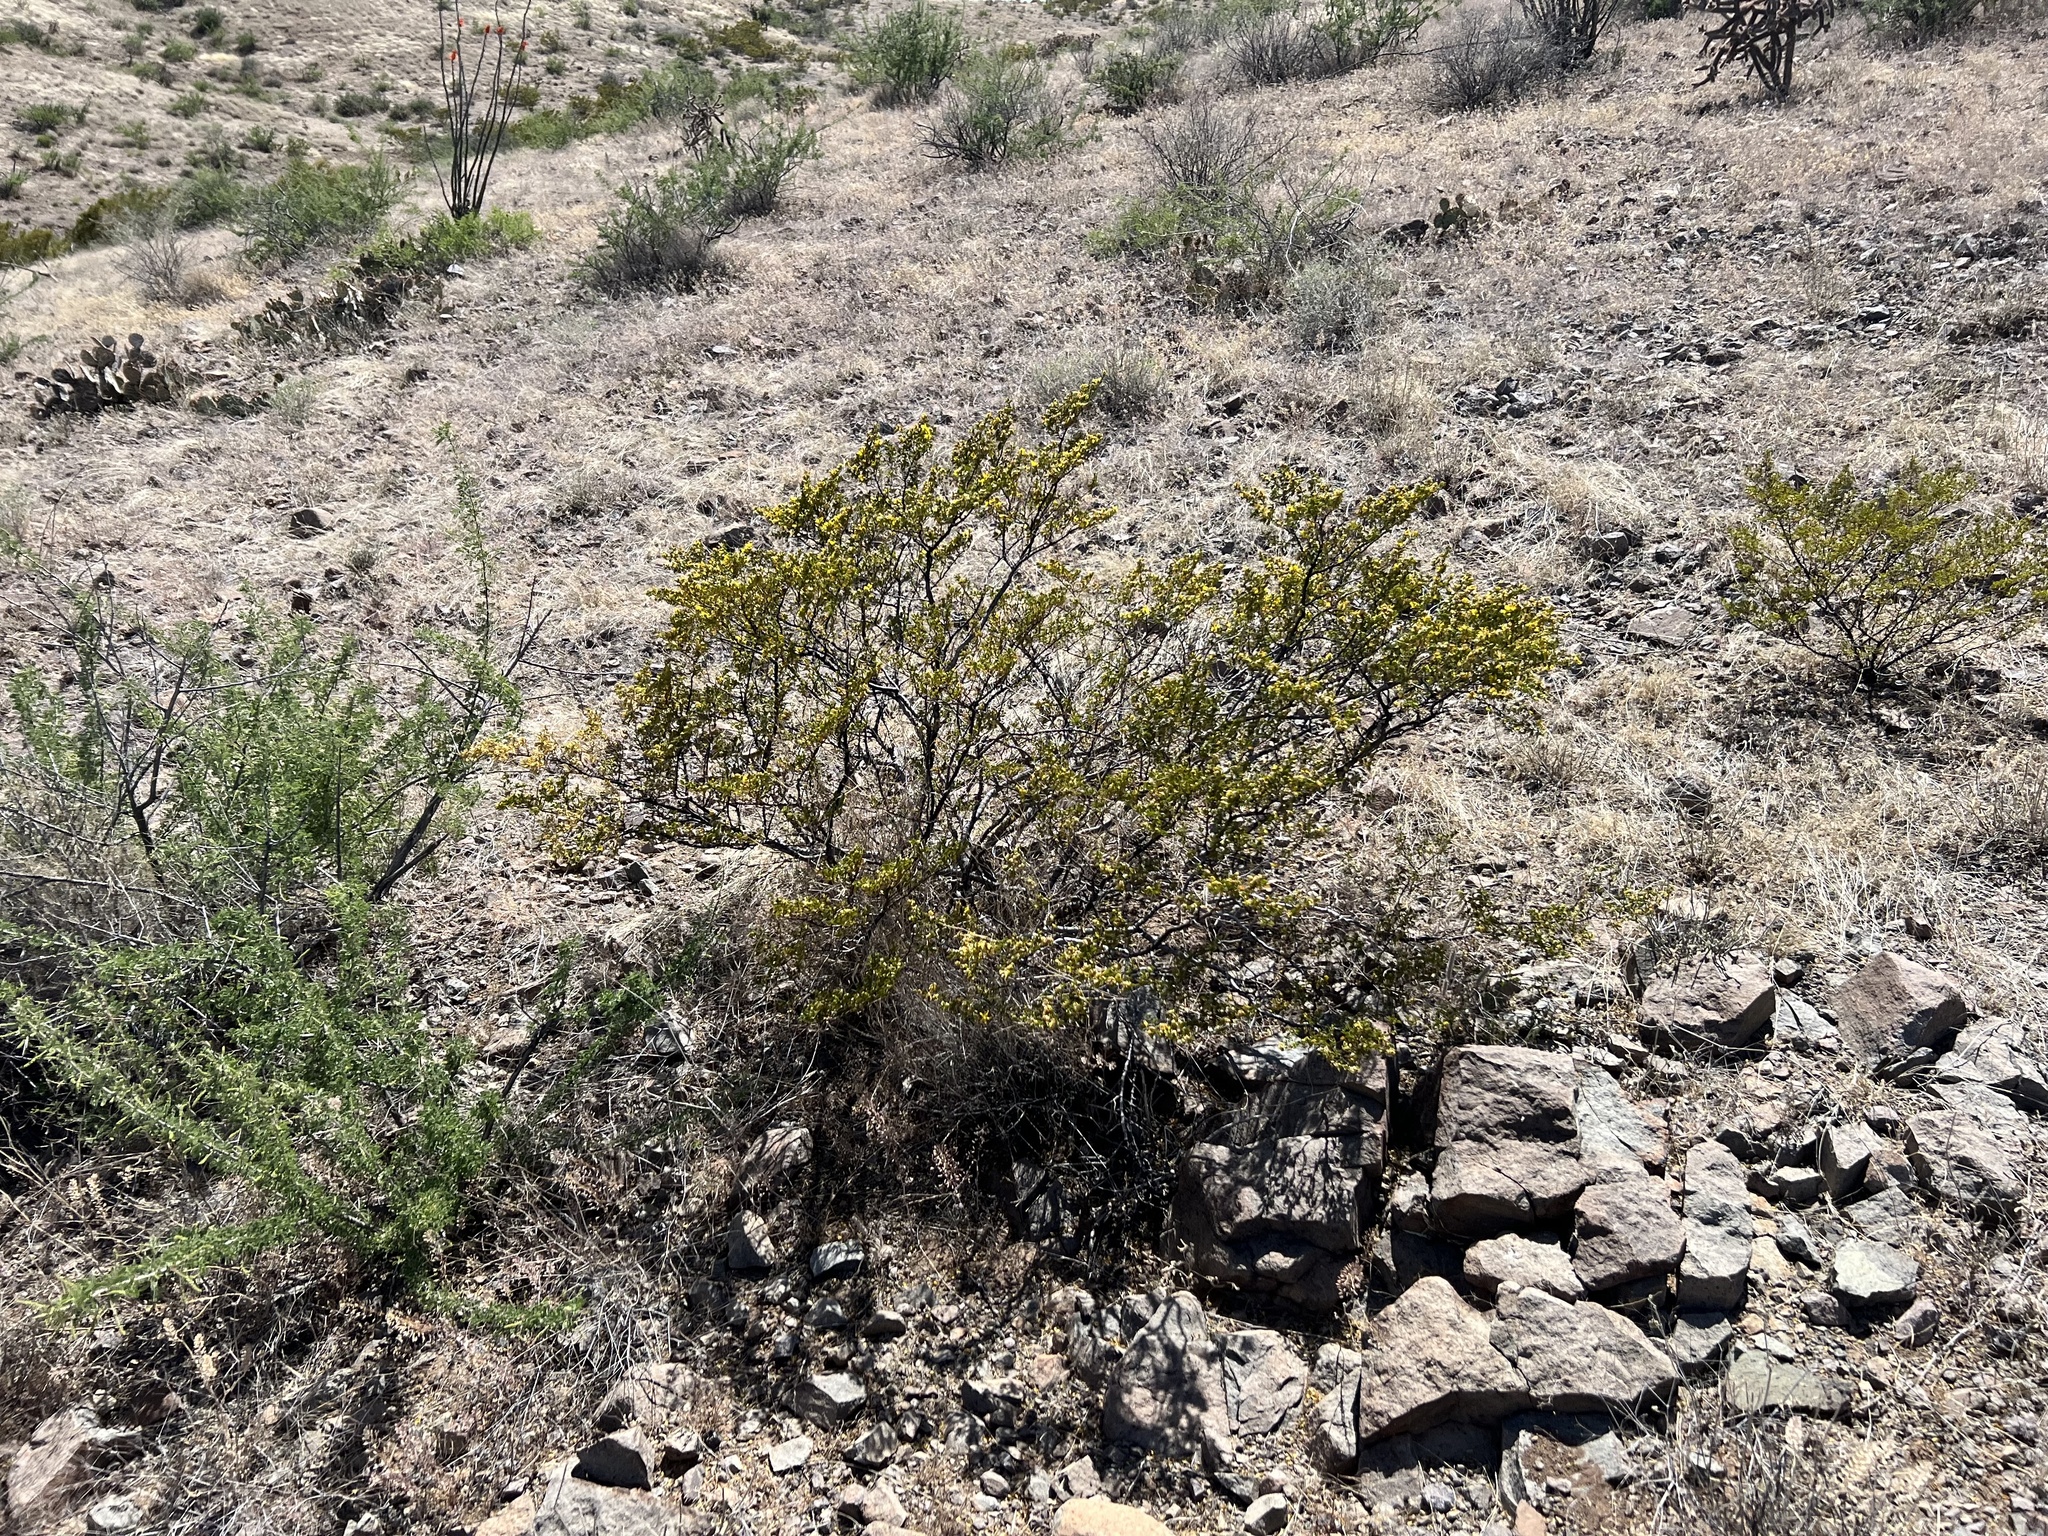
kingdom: Plantae
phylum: Tracheophyta
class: Magnoliopsida
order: Zygophyllales
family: Zygophyllaceae
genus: Larrea
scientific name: Larrea tridentata
